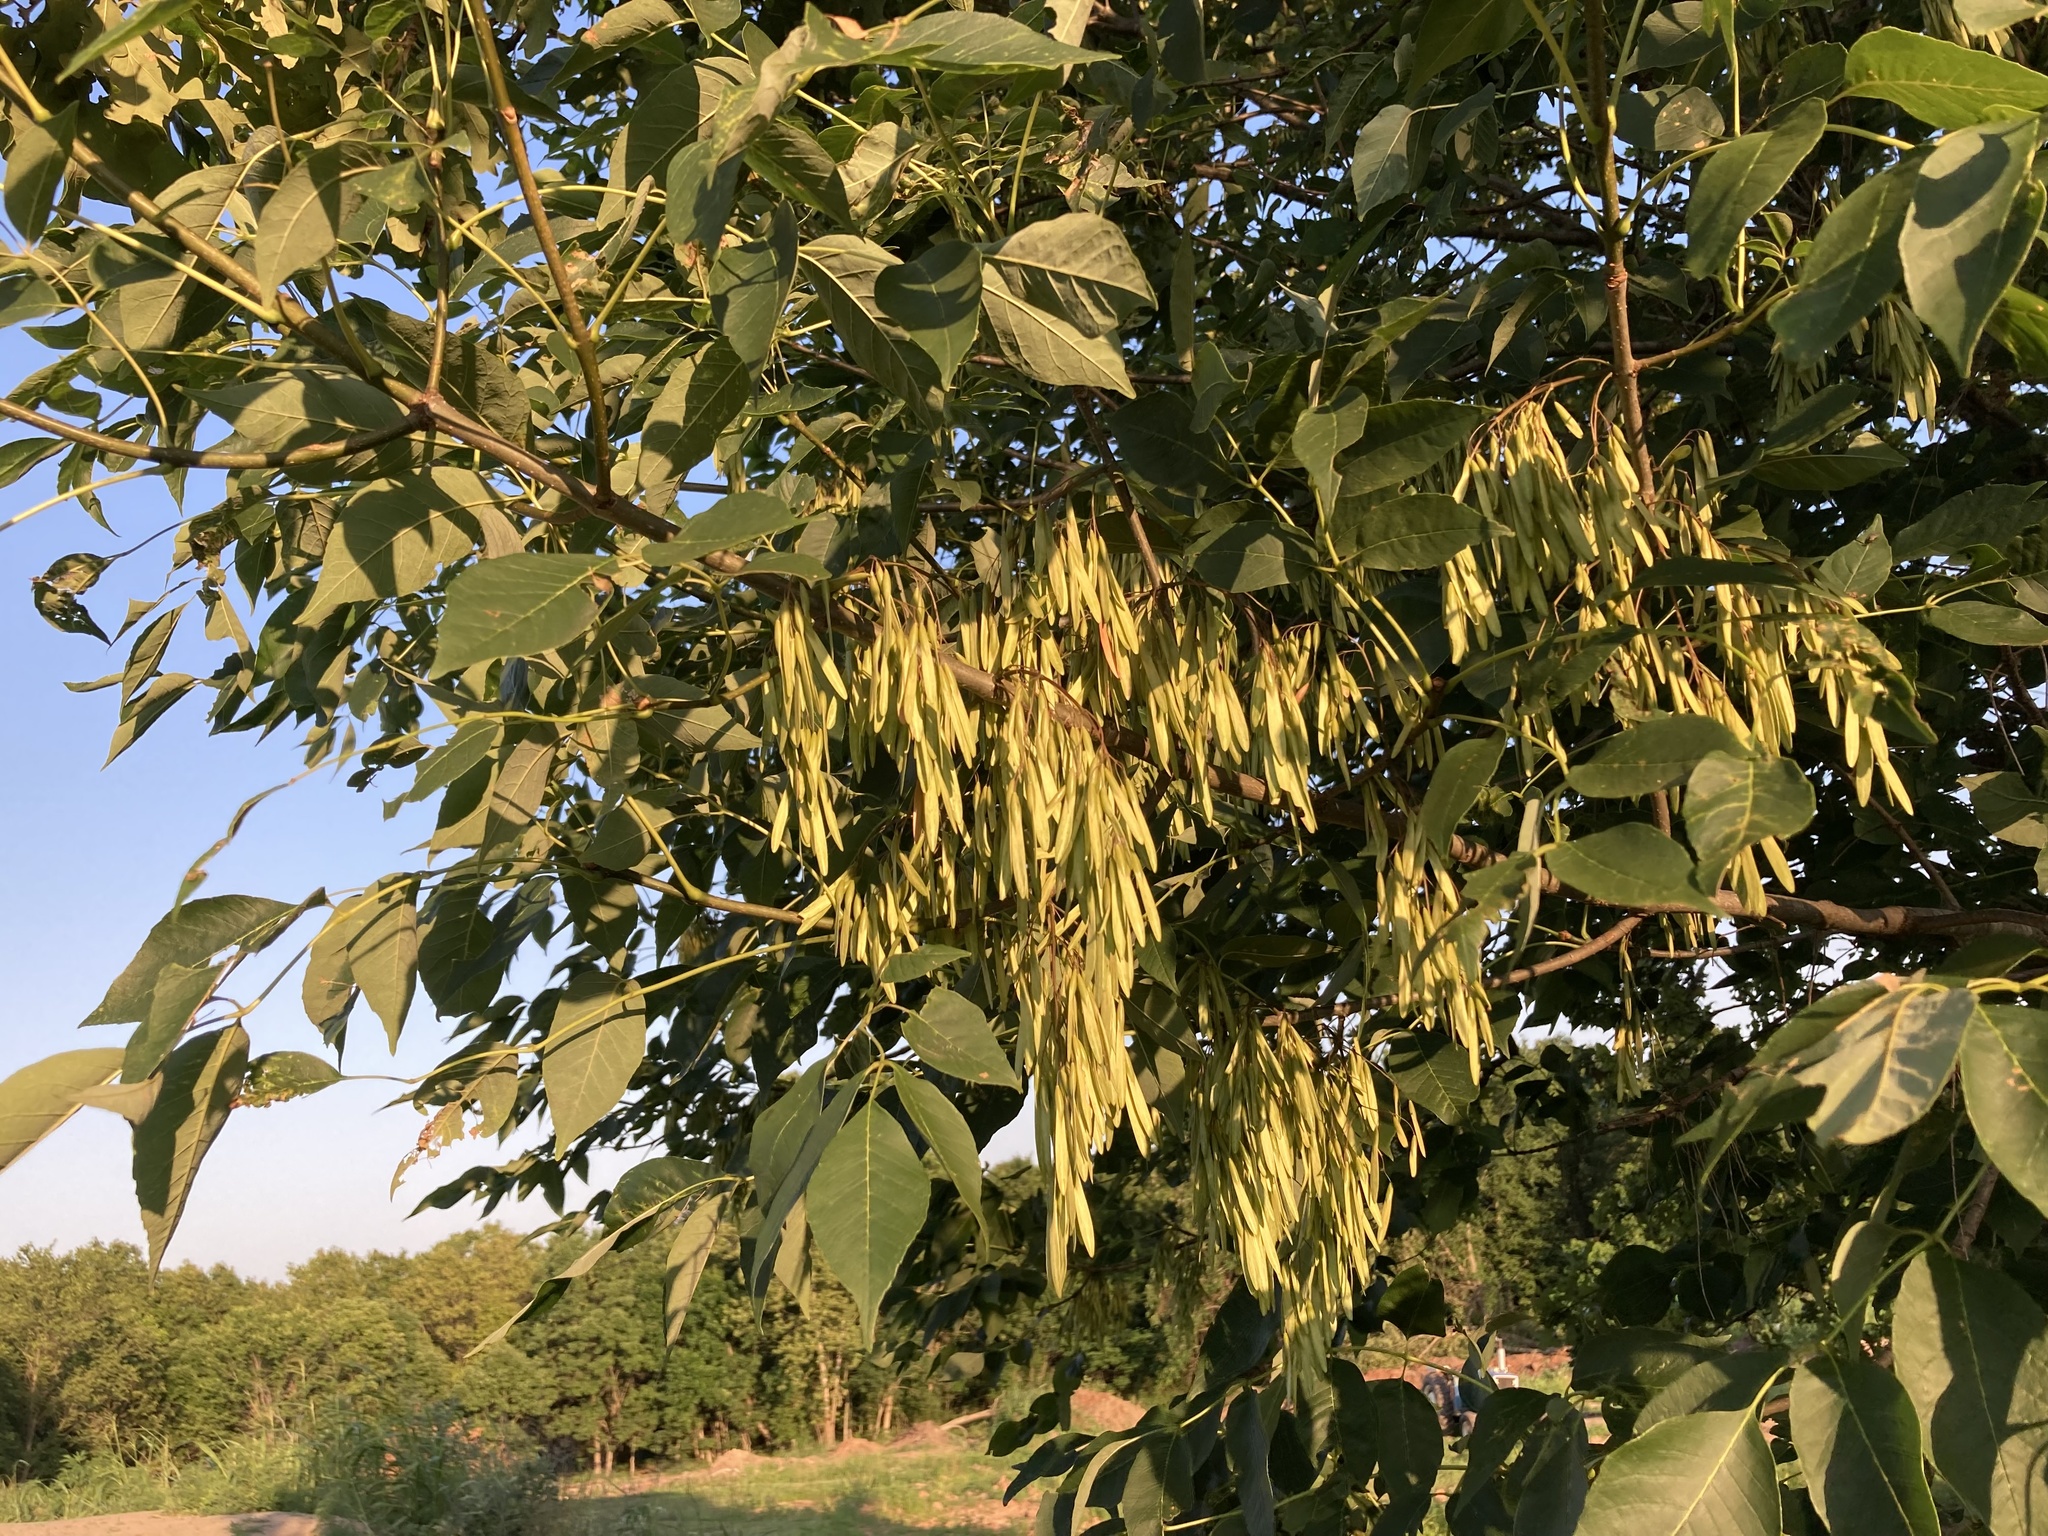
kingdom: Plantae
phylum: Tracheophyta
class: Magnoliopsida
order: Lamiales
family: Oleaceae
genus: Fraxinus
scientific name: Fraxinus pennsylvanica
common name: Green ash
